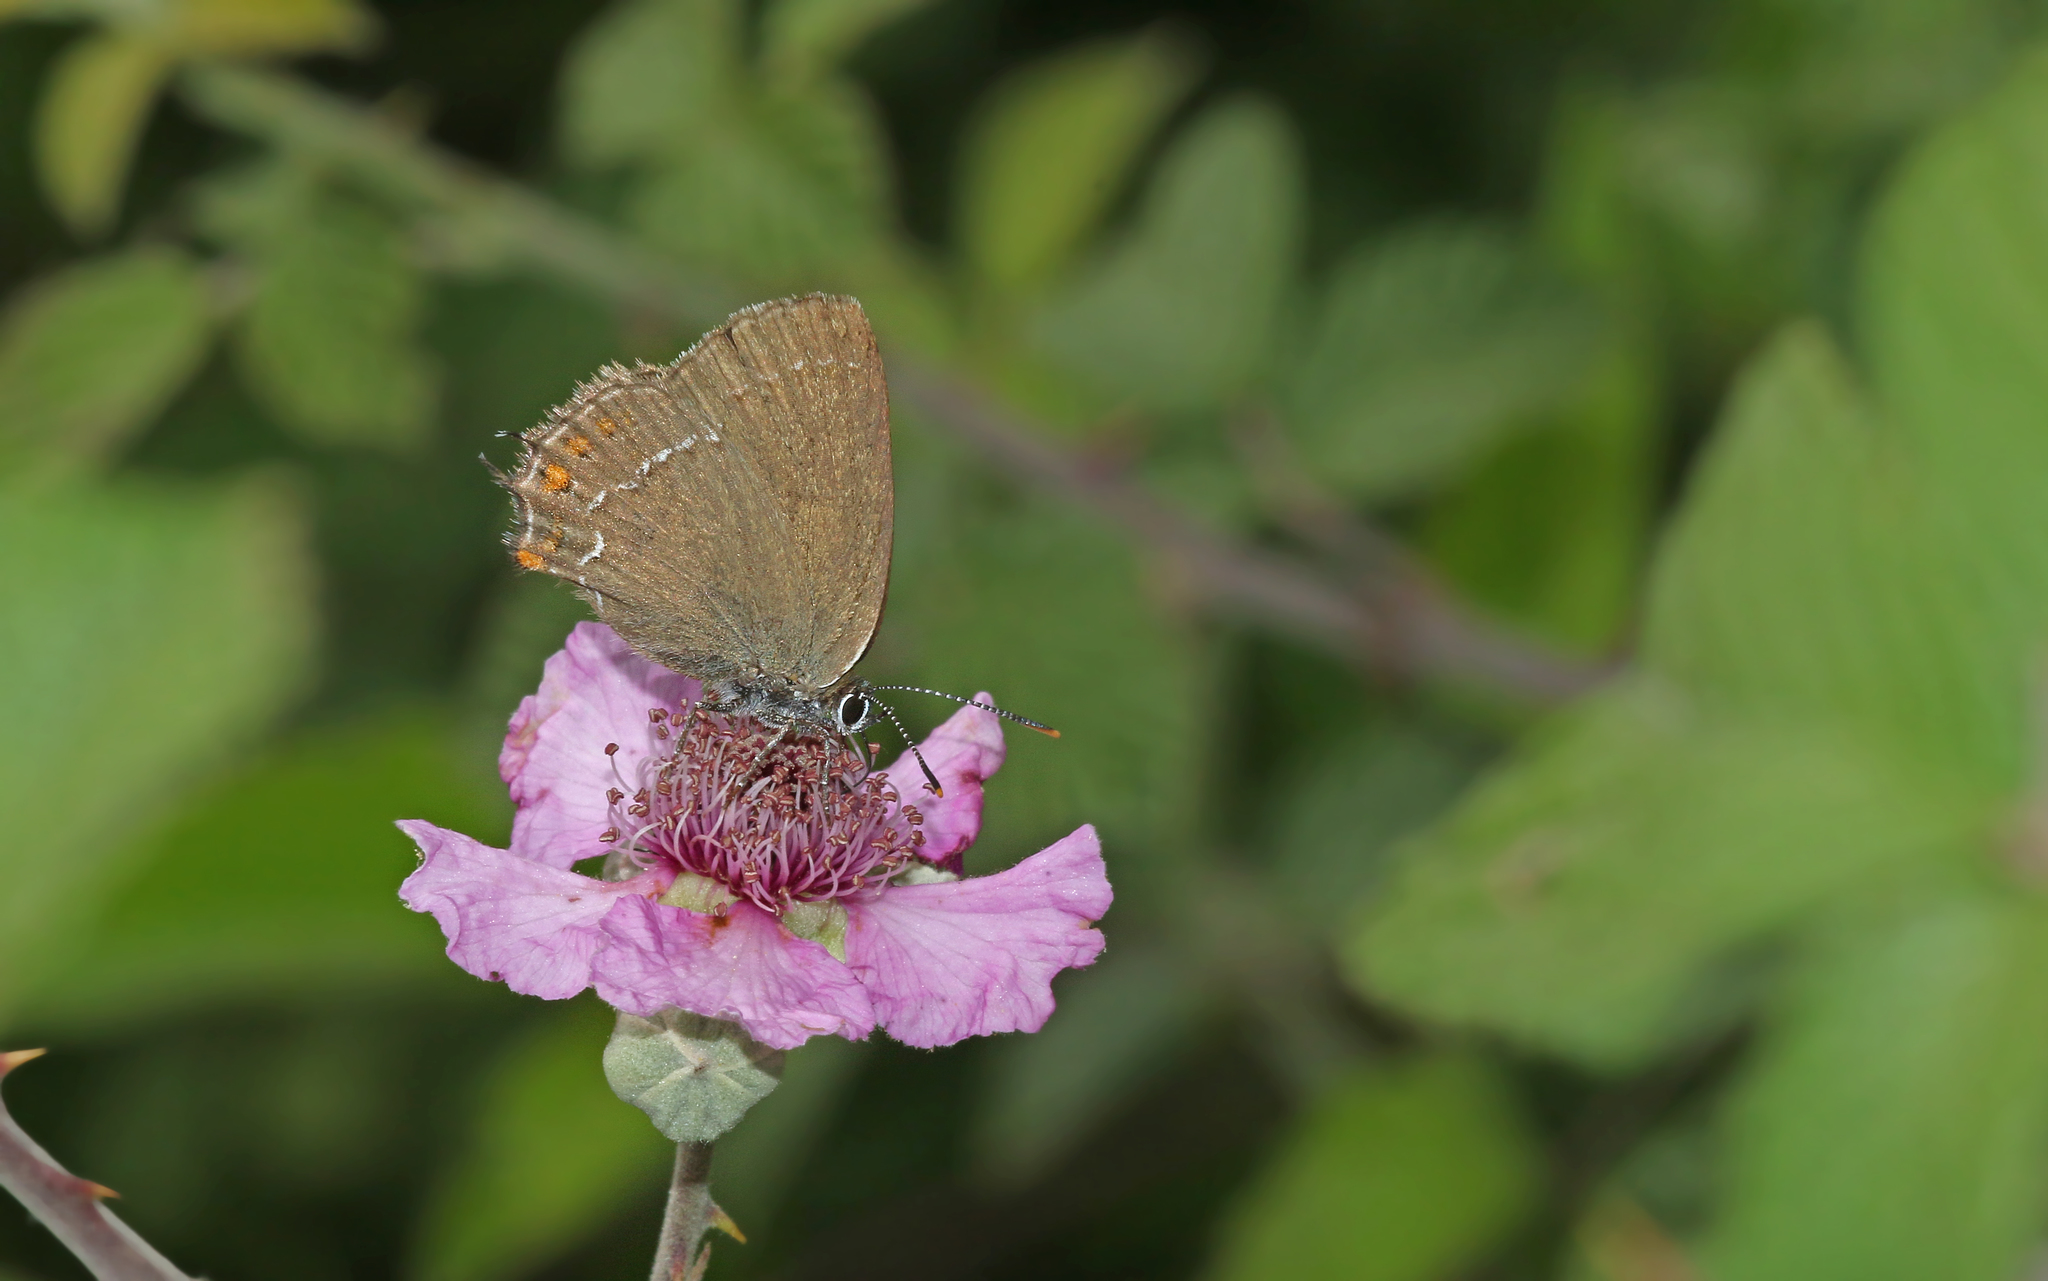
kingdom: Animalia
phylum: Arthropoda
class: Insecta
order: Lepidoptera
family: Lycaenidae
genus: Nordmannia
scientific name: Nordmannia ilicis
